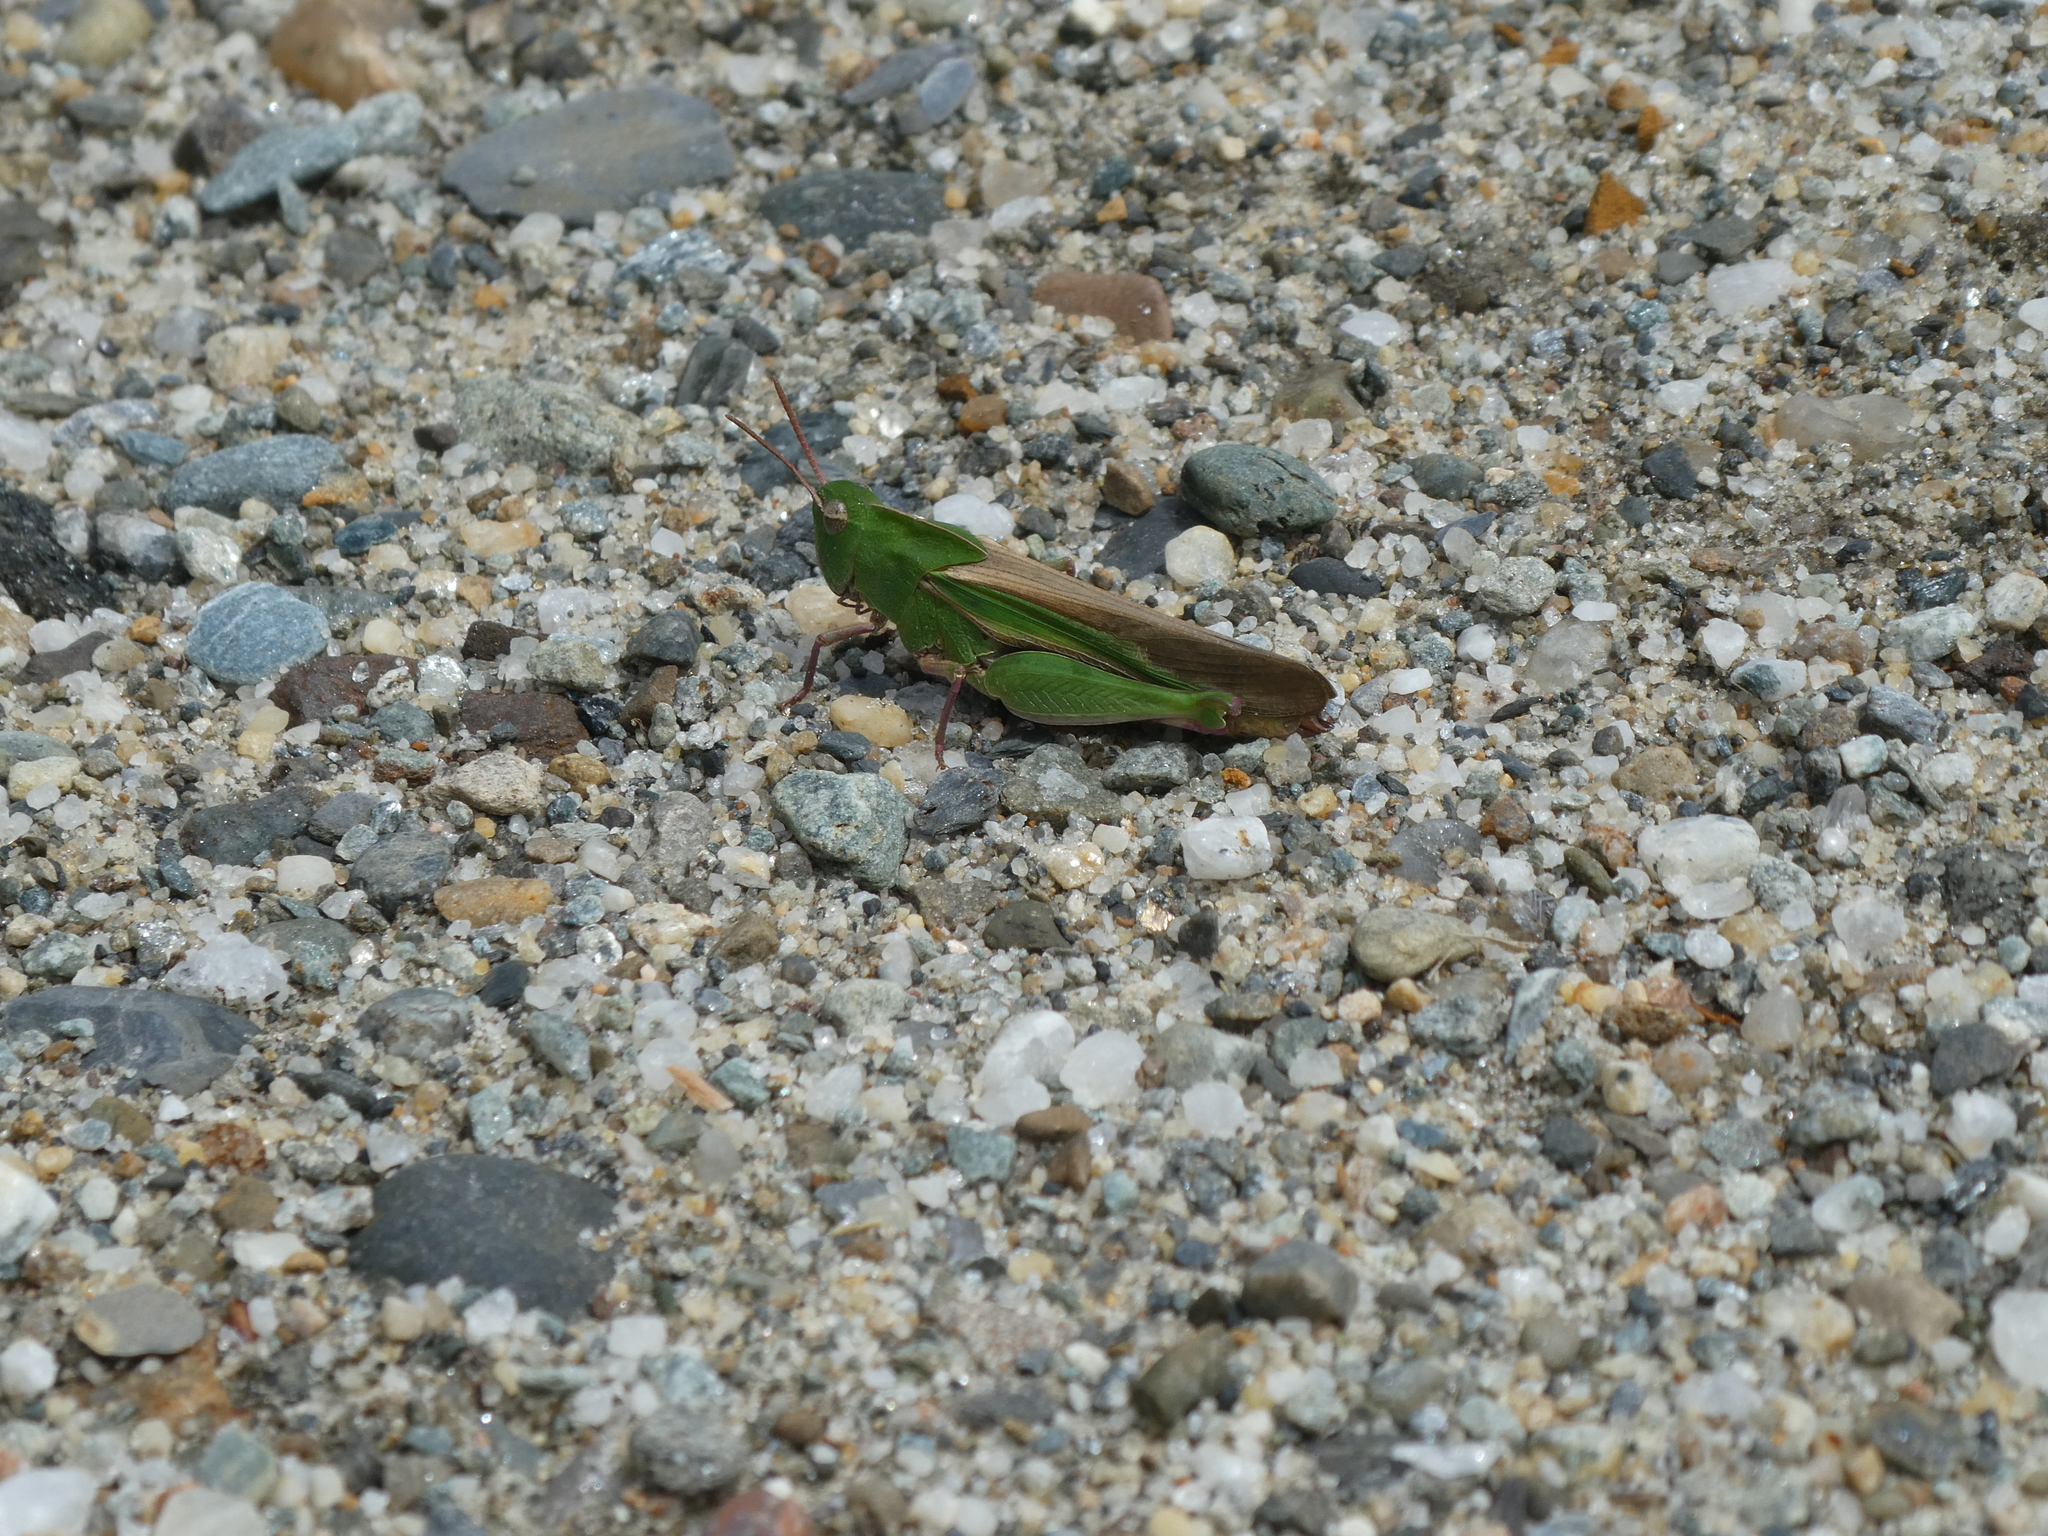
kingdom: Animalia
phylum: Arthropoda
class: Insecta
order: Orthoptera
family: Acrididae
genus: Chortophaga
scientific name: Chortophaga viridifasciata
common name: Green-striped grasshopper
